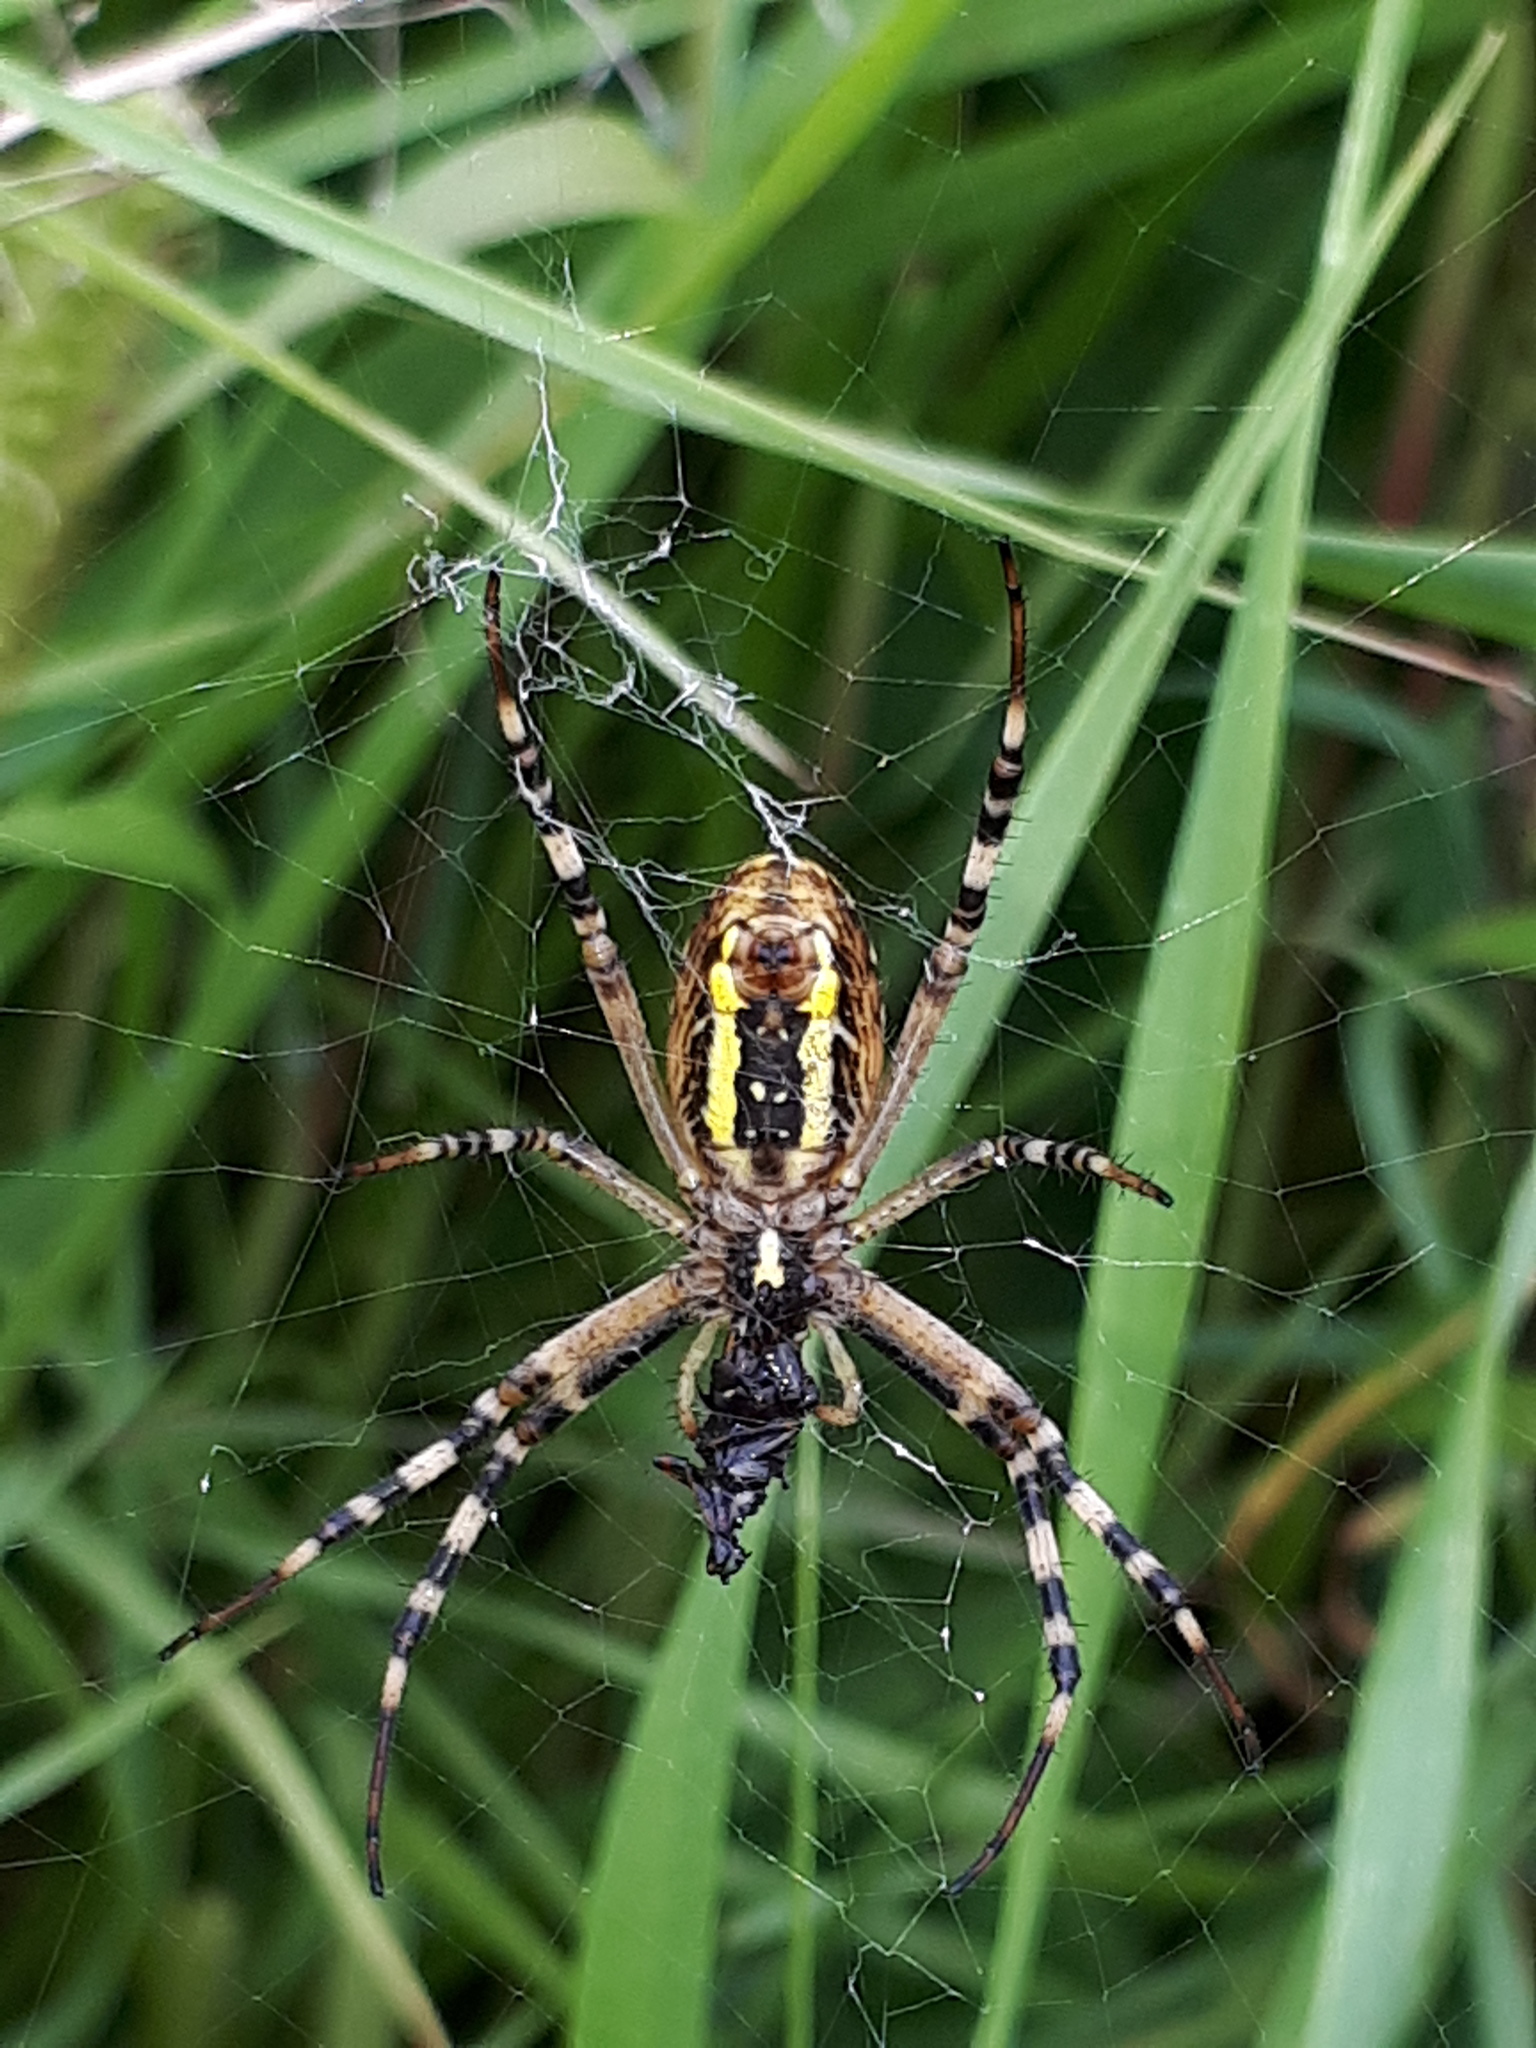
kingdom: Animalia
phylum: Arthropoda
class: Arachnida
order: Araneae
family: Araneidae
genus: Argiope
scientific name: Argiope bruennichi
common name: Wasp spider
